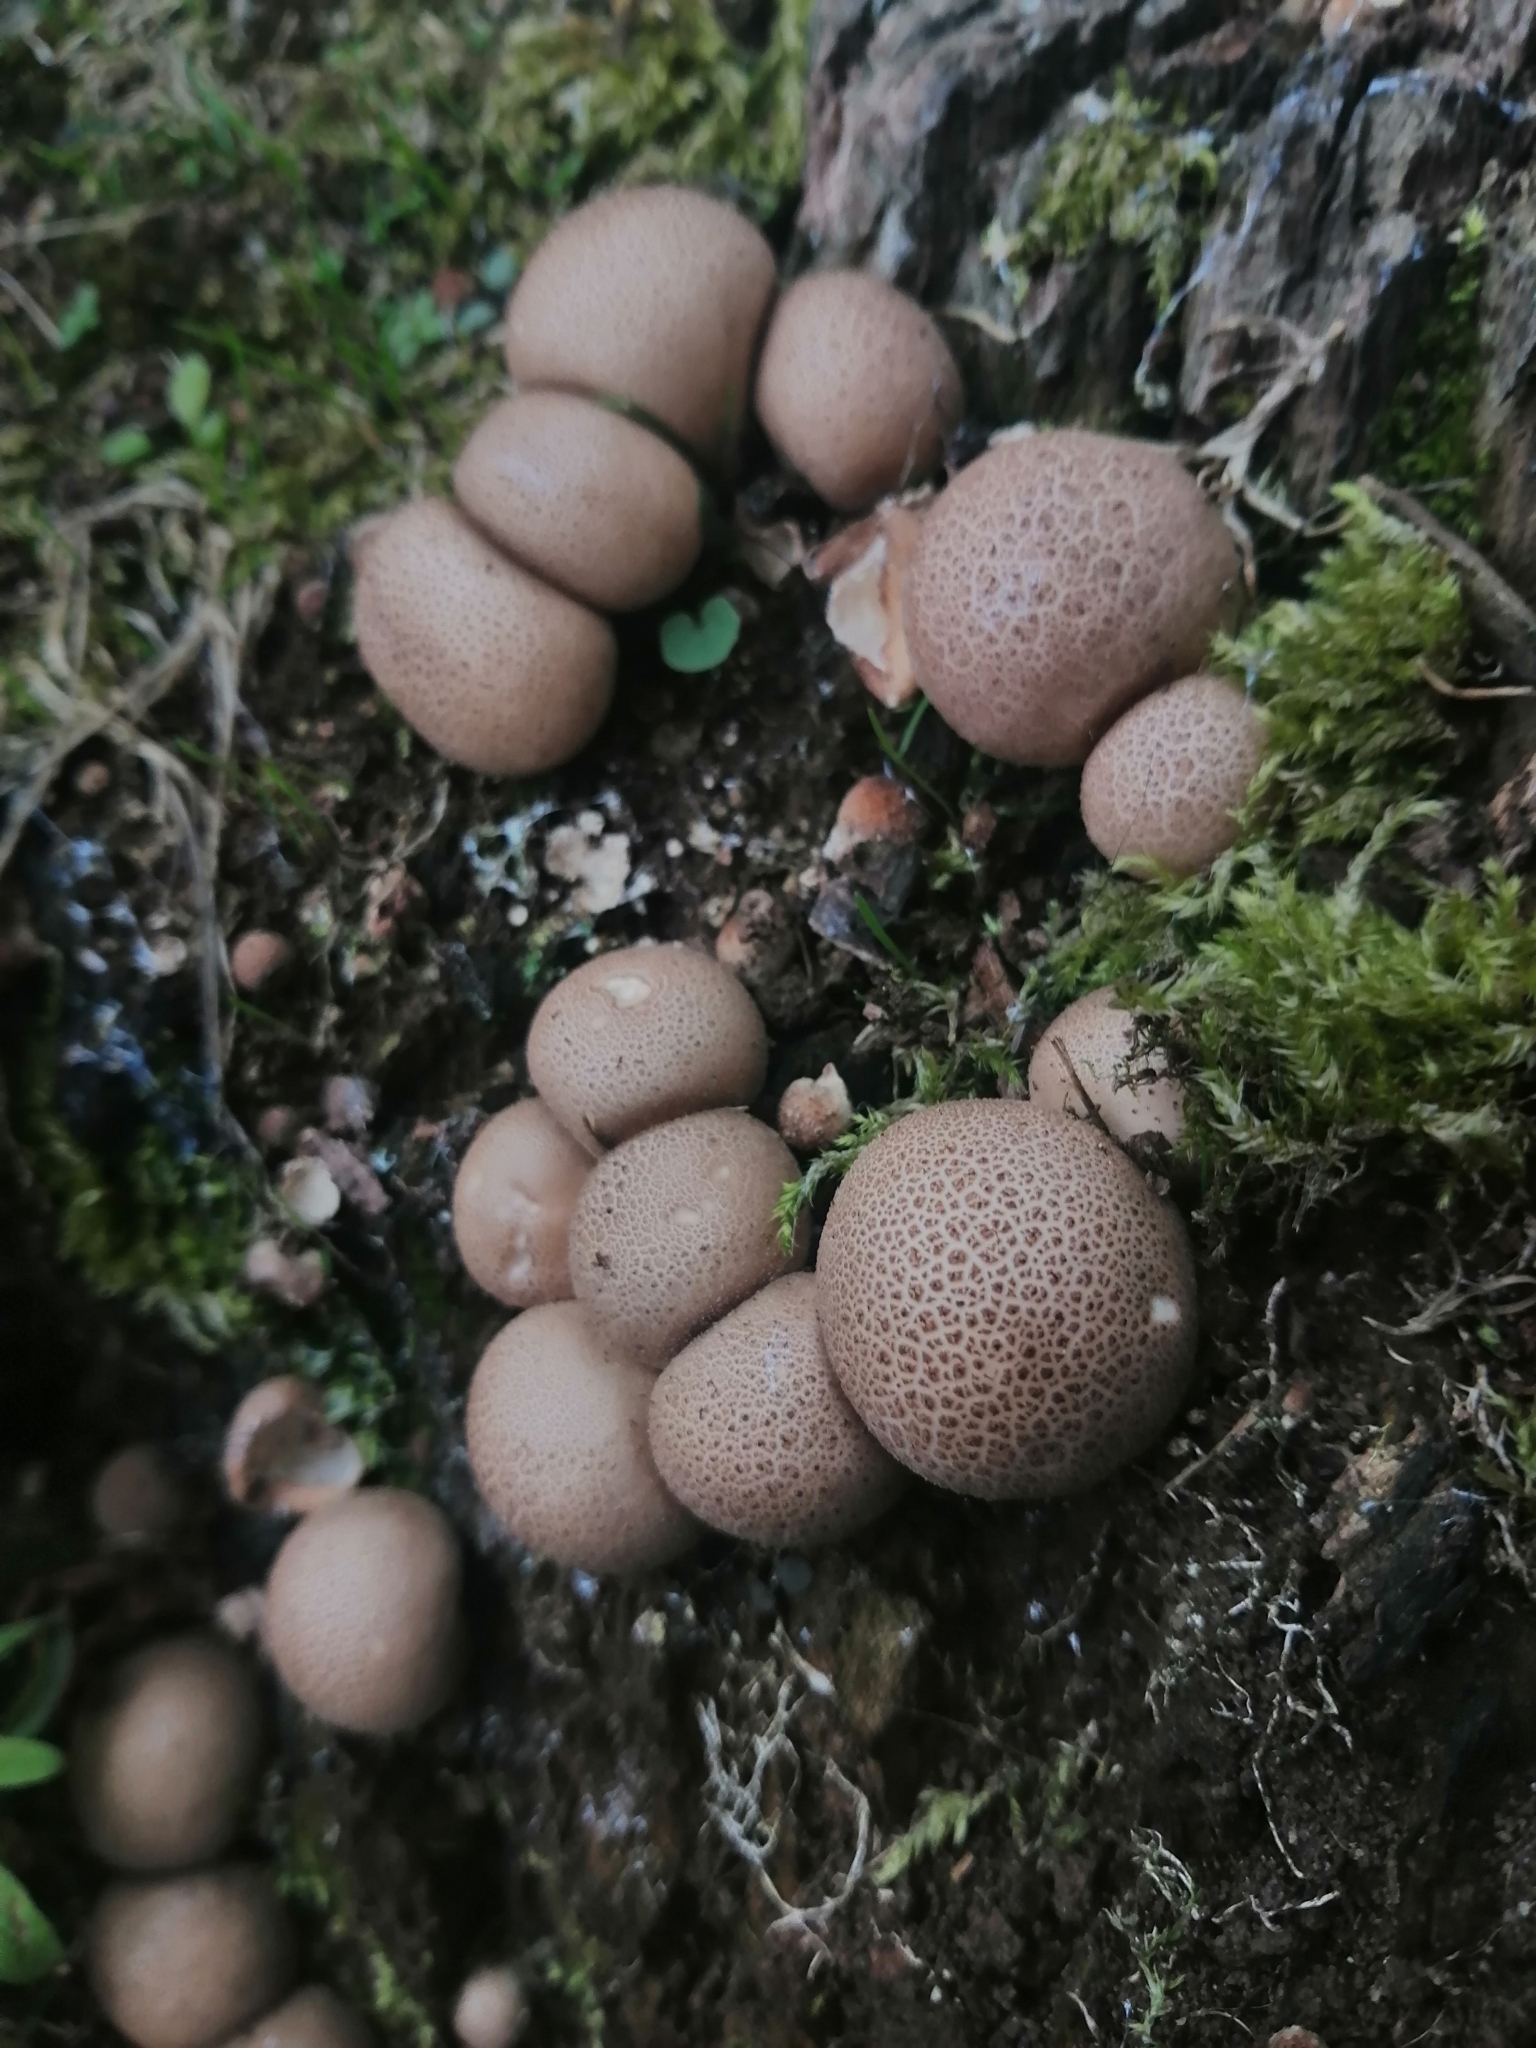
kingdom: Fungi
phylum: Basidiomycota
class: Agaricomycetes
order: Agaricales
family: Lycoperdaceae
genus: Apioperdon
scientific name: Apioperdon pyriforme
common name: Pear-shaped puffball
